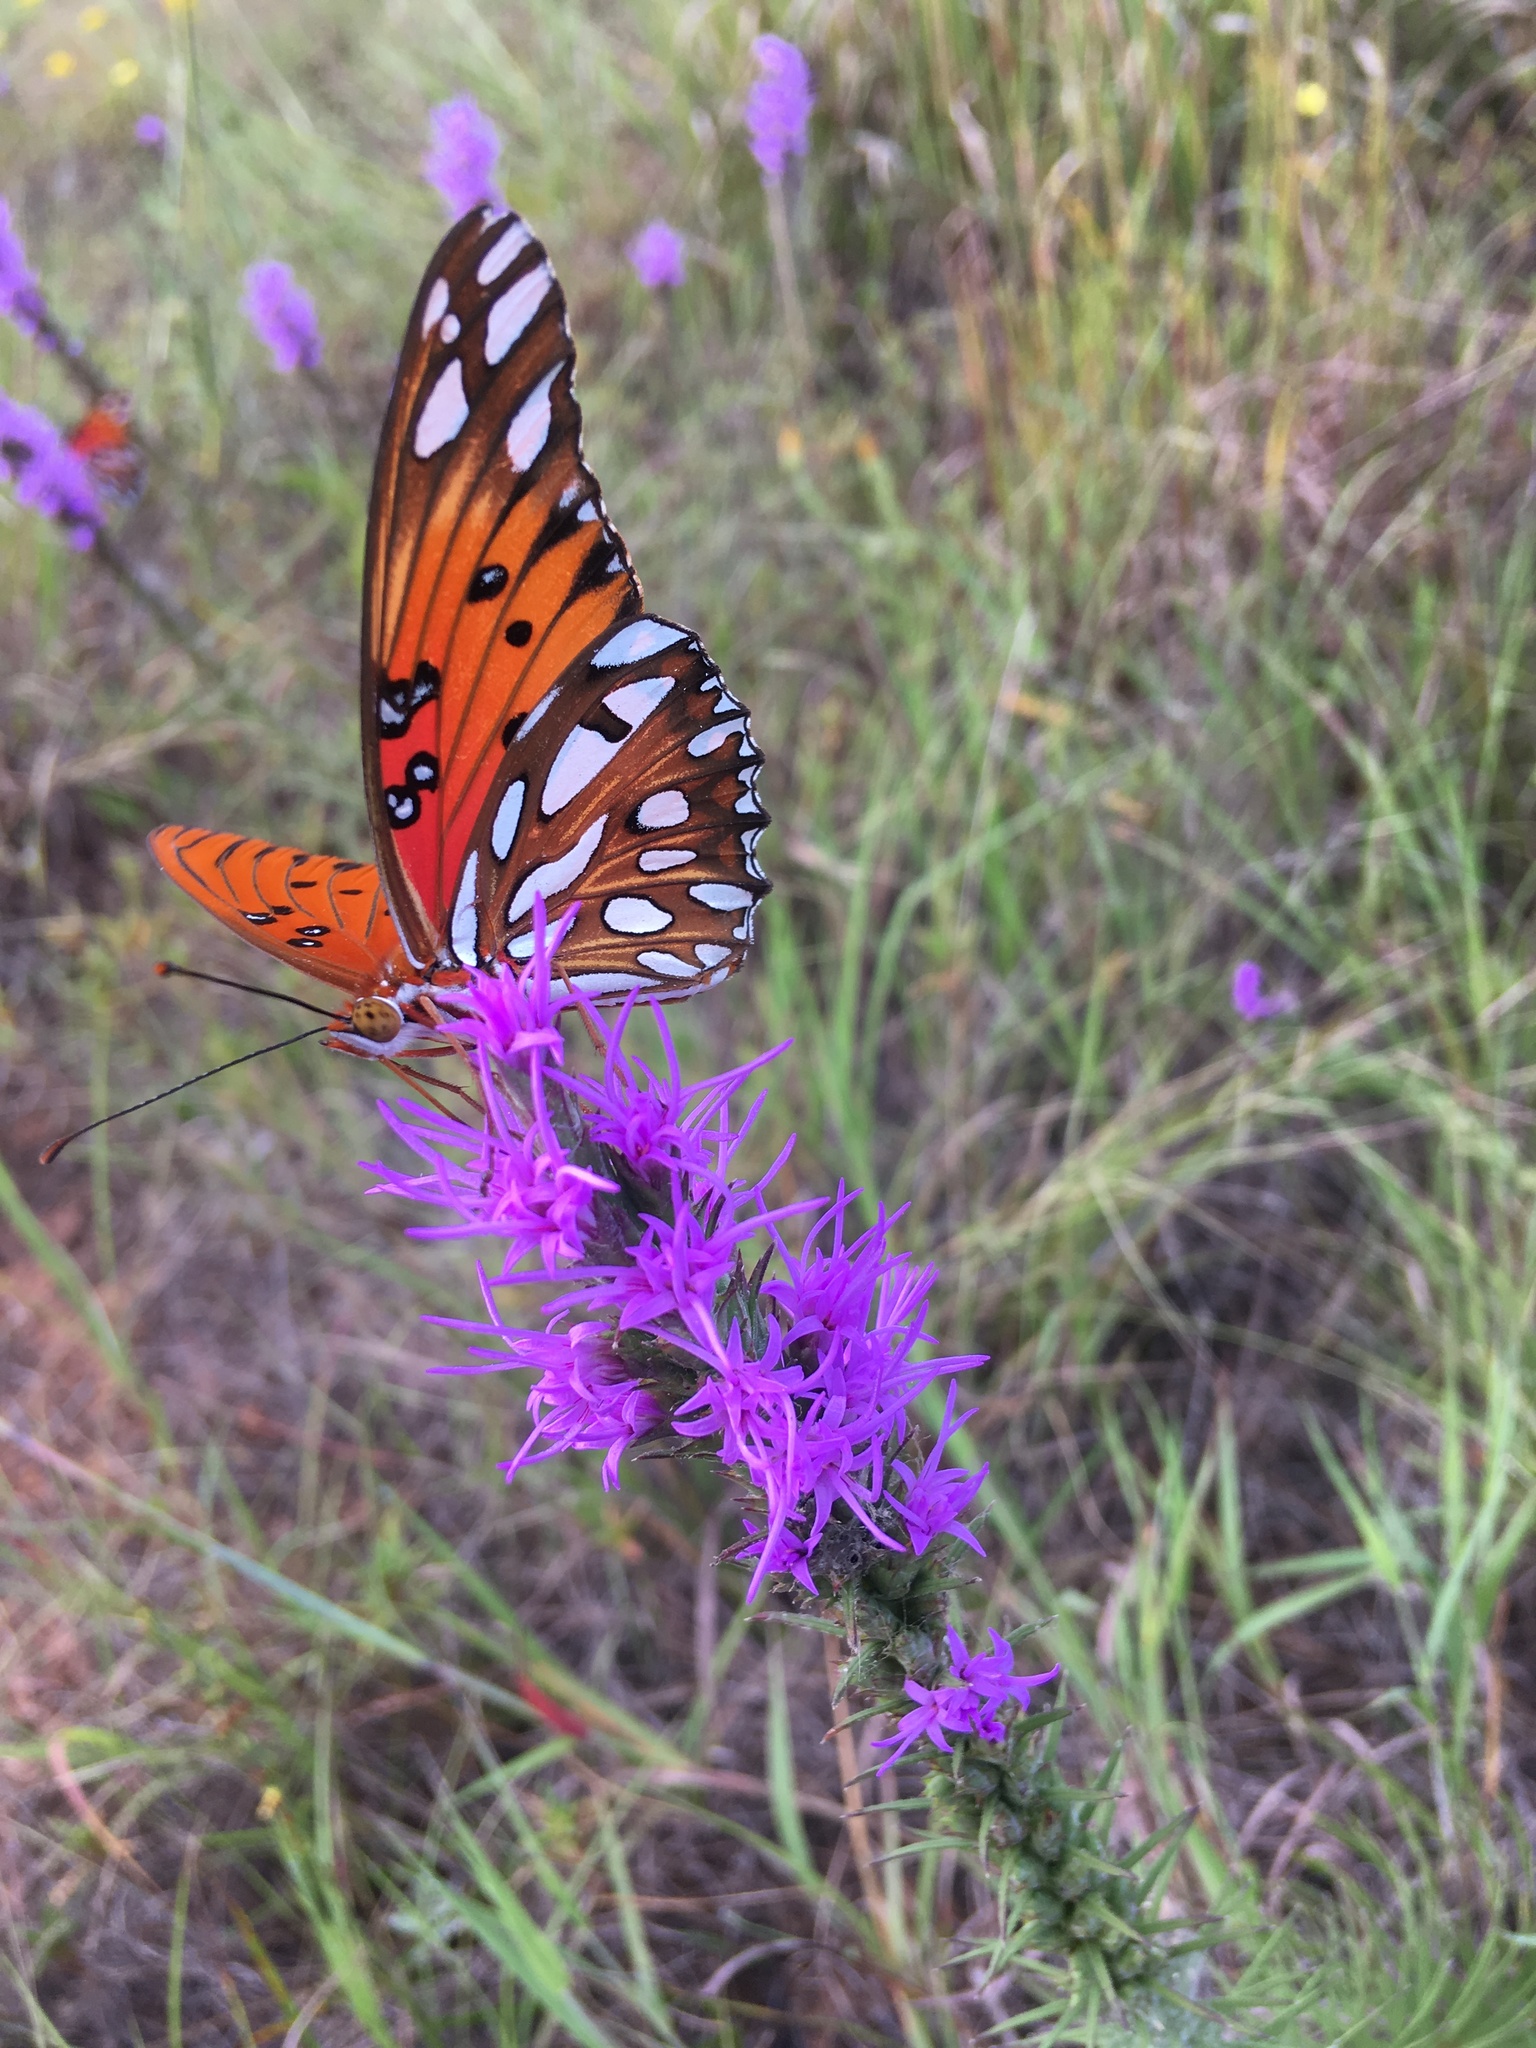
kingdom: Animalia
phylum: Arthropoda
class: Insecta
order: Lepidoptera
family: Nymphalidae
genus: Dione
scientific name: Dione vanillae
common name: Gulf fritillary
